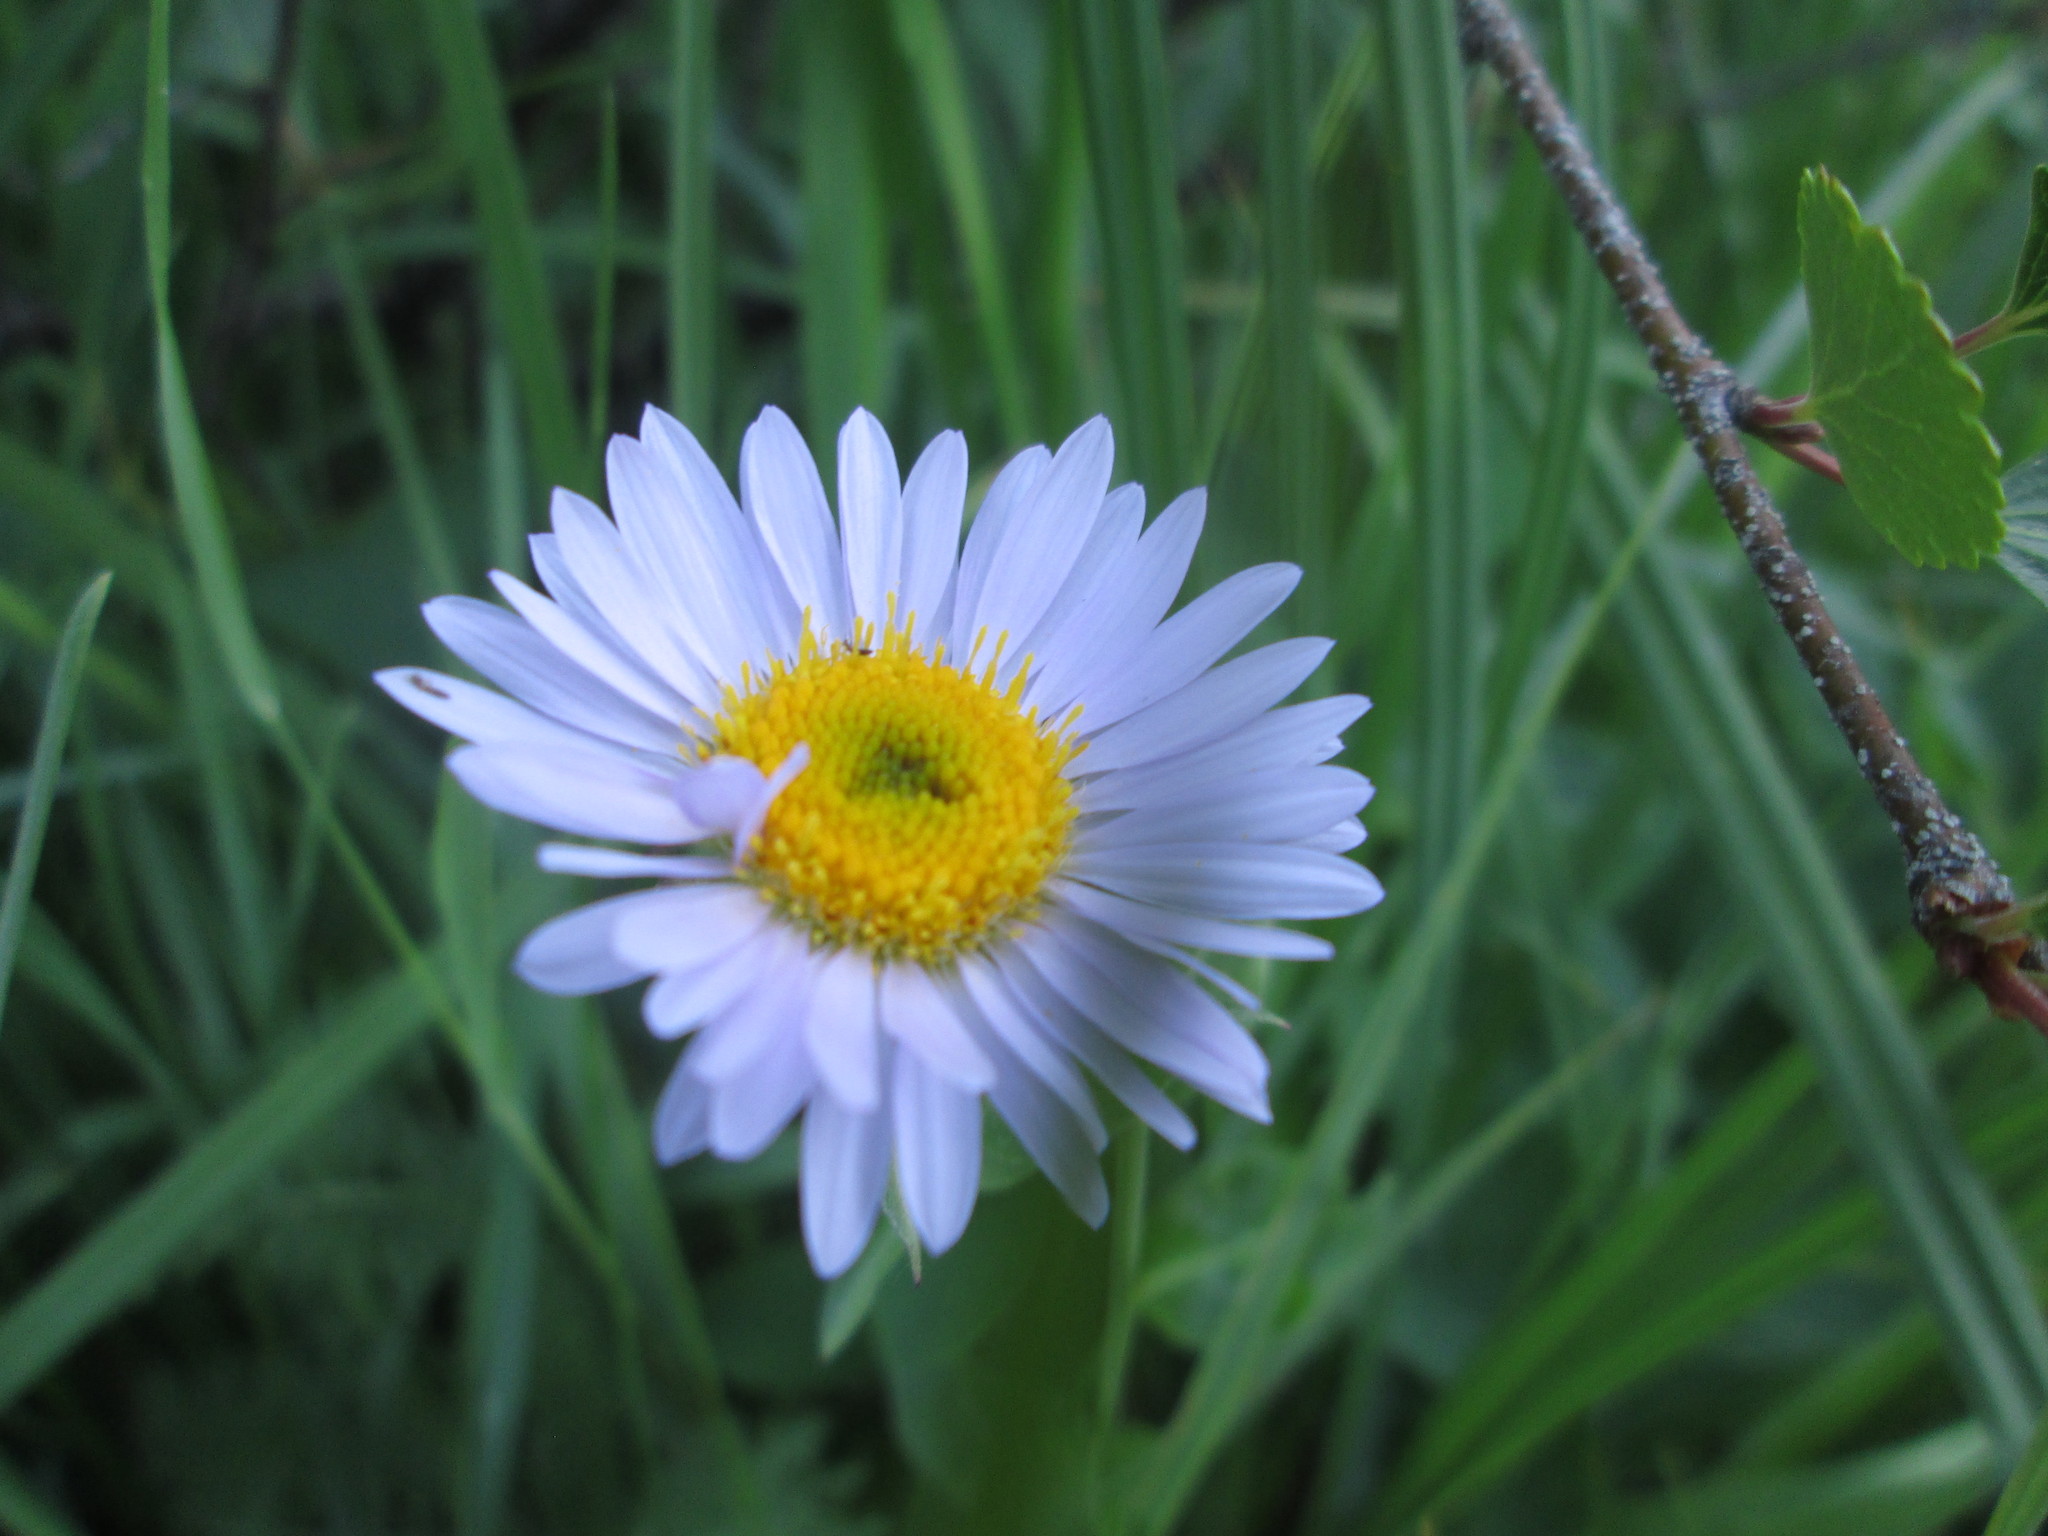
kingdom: Plantae
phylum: Tracheophyta
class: Magnoliopsida
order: Asterales
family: Asteraceae
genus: Erigeron
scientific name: Erigeron glacialis
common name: Subalpine fleabane
